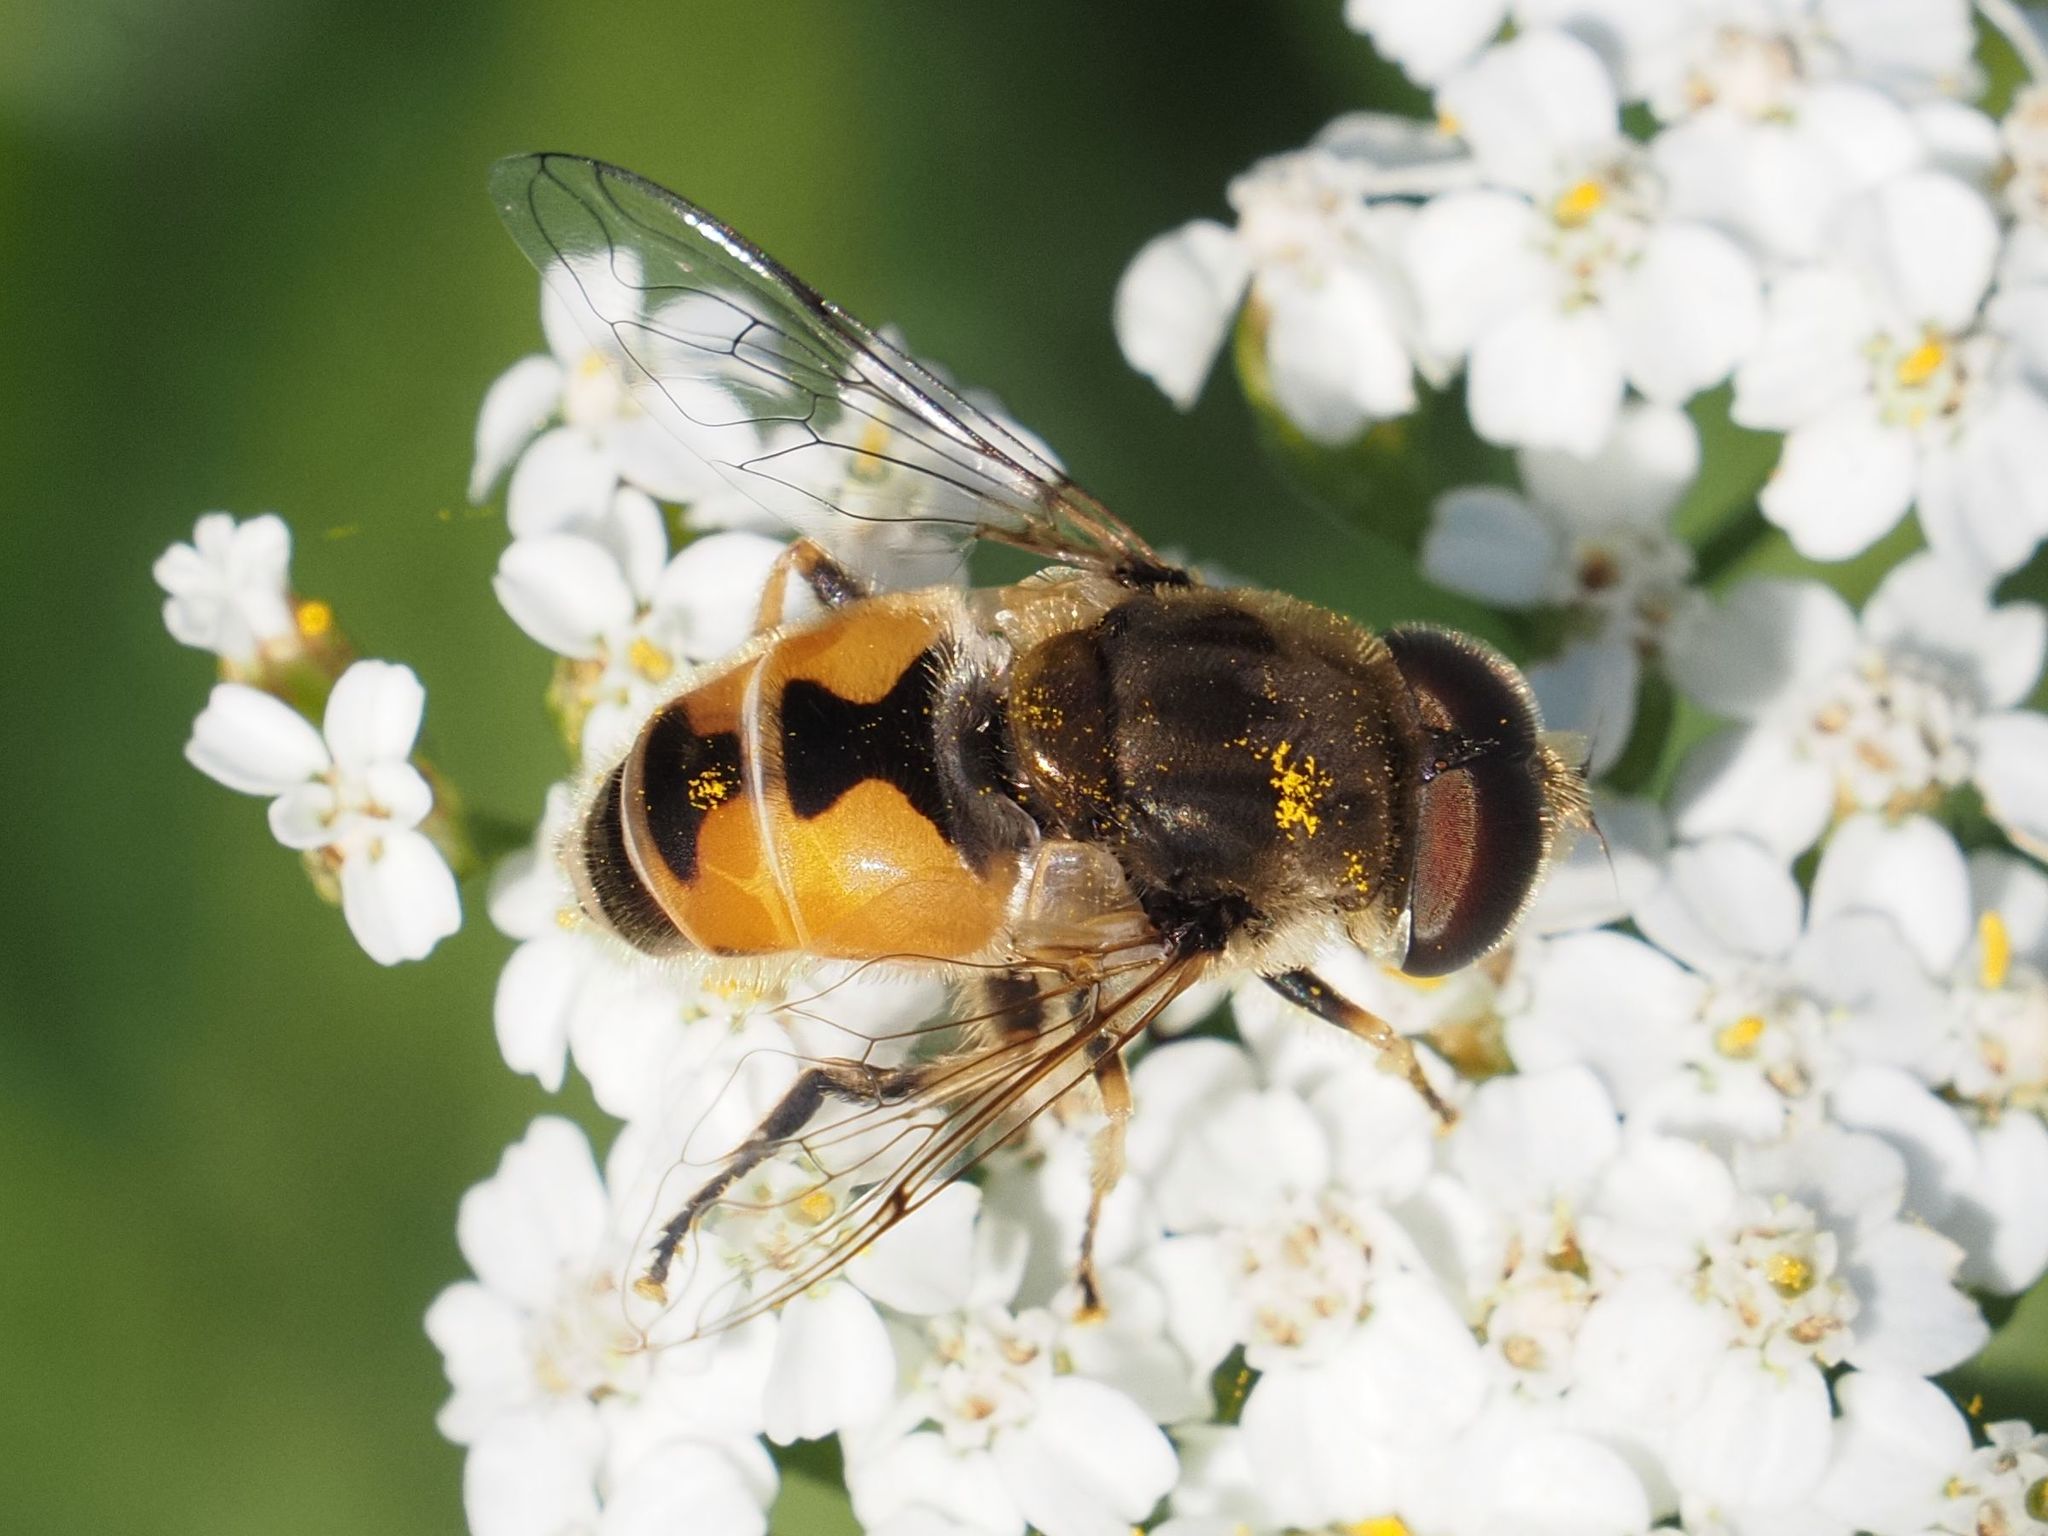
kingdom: Animalia
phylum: Arthropoda
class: Insecta
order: Diptera
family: Syrphidae
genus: Eristalis
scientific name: Eristalis arbustorum
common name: Hover fly
